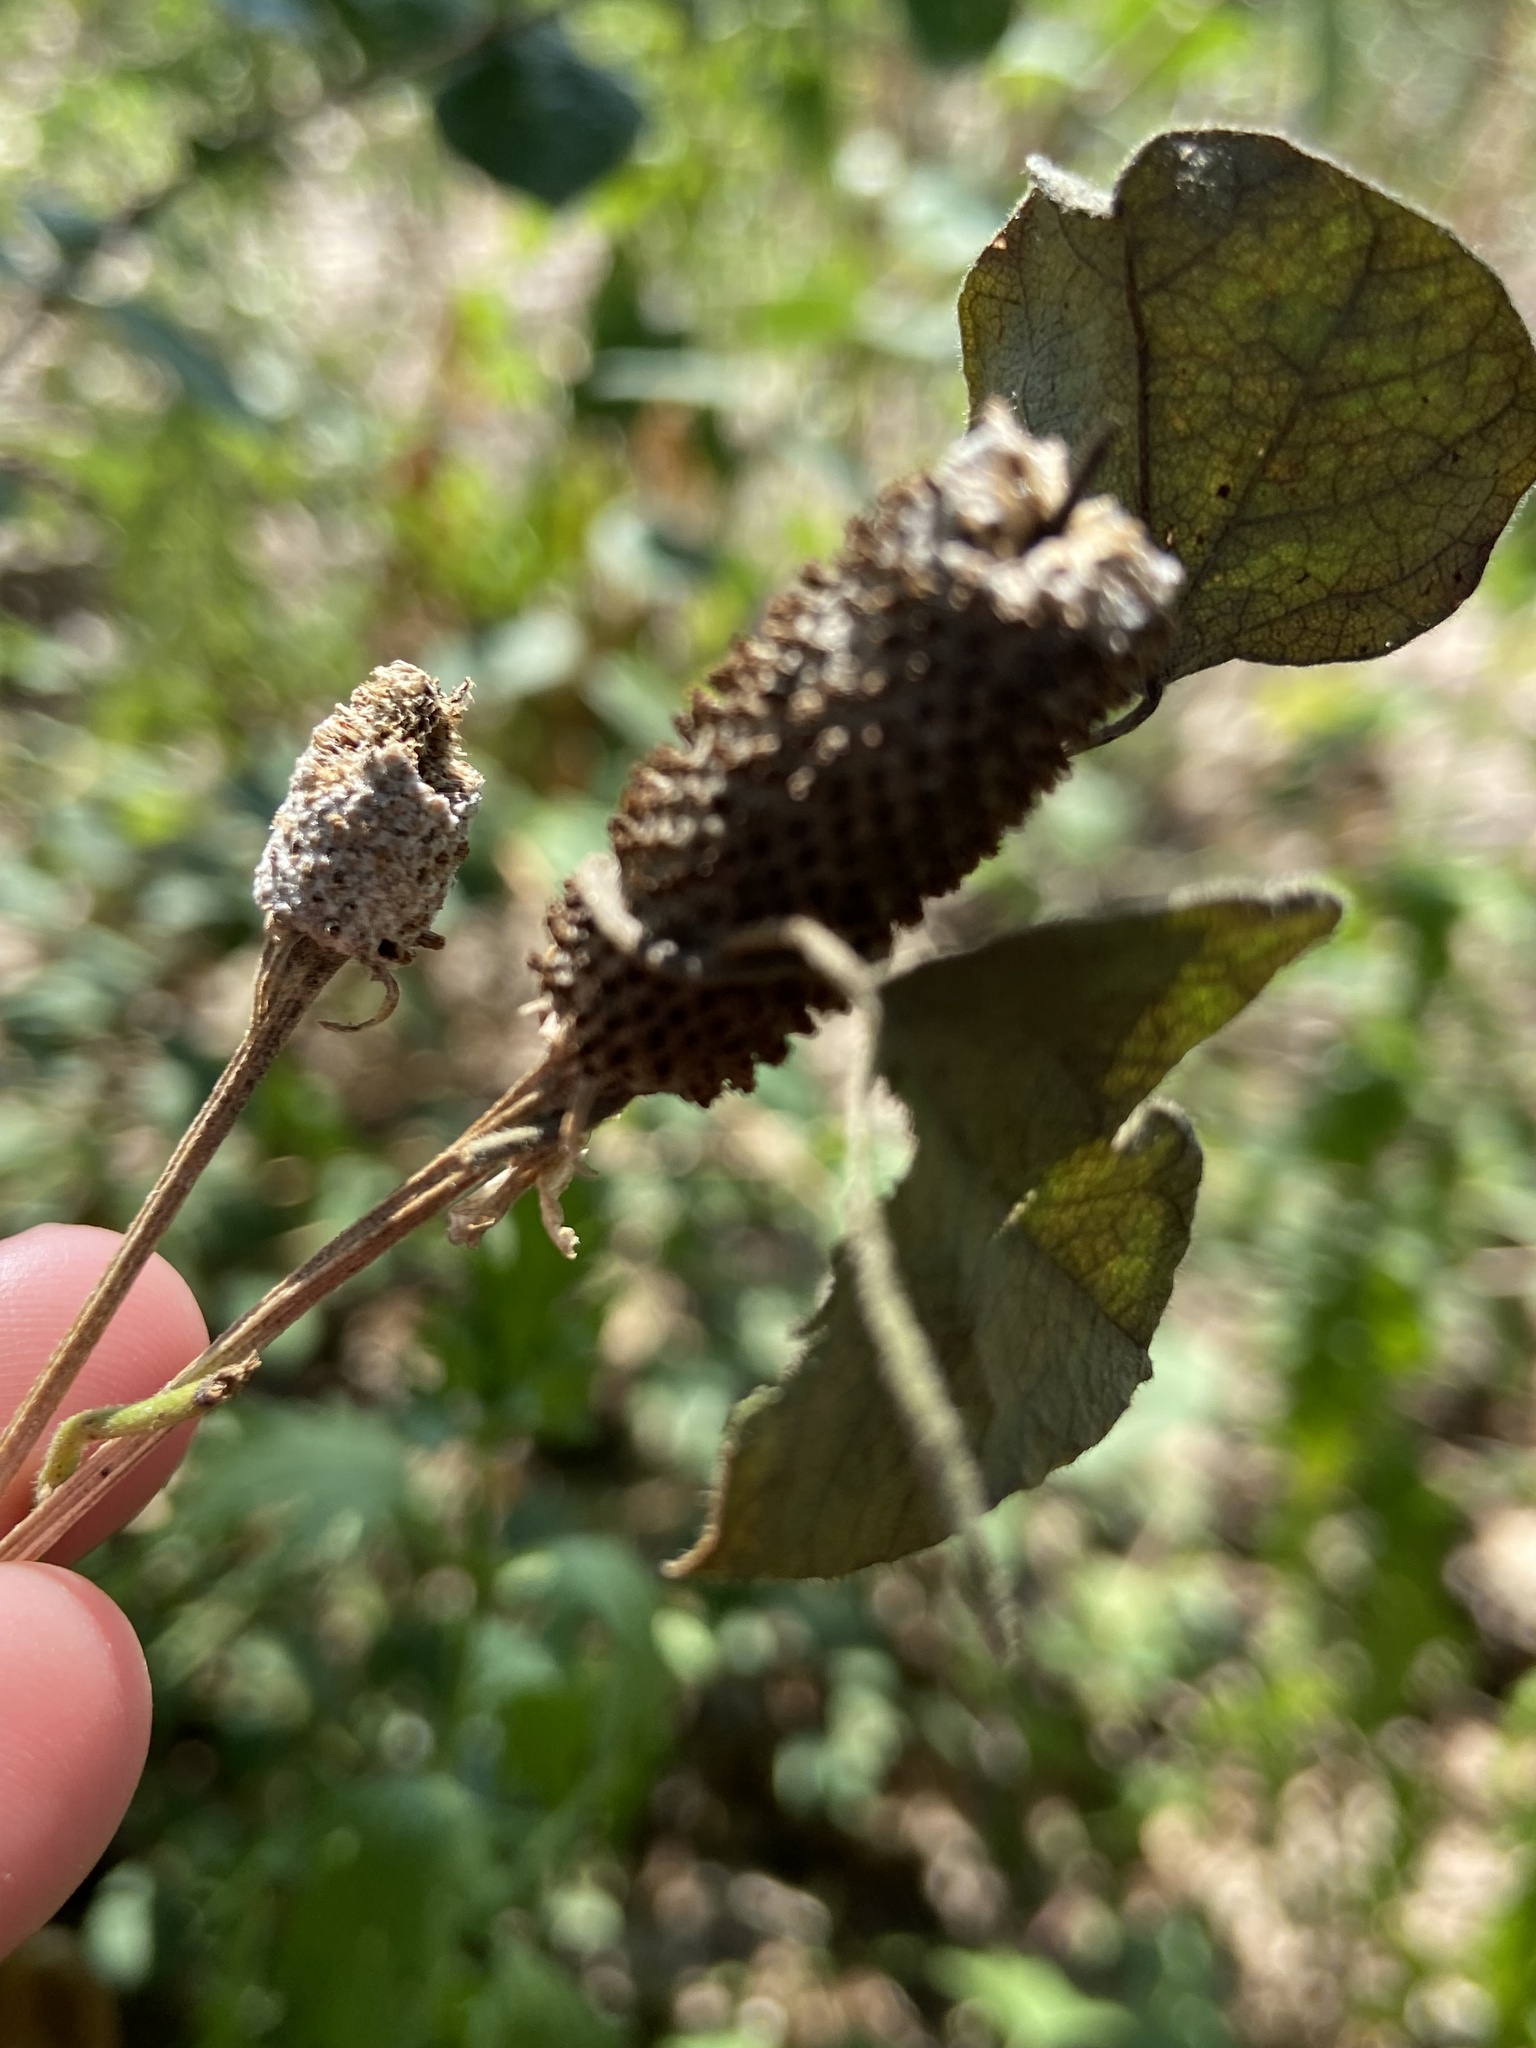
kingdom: Plantae
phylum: Tracheophyta
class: Magnoliopsida
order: Asterales
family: Asteraceae
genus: Ratibida
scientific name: Ratibida columnifera
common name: Prairie coneflower
